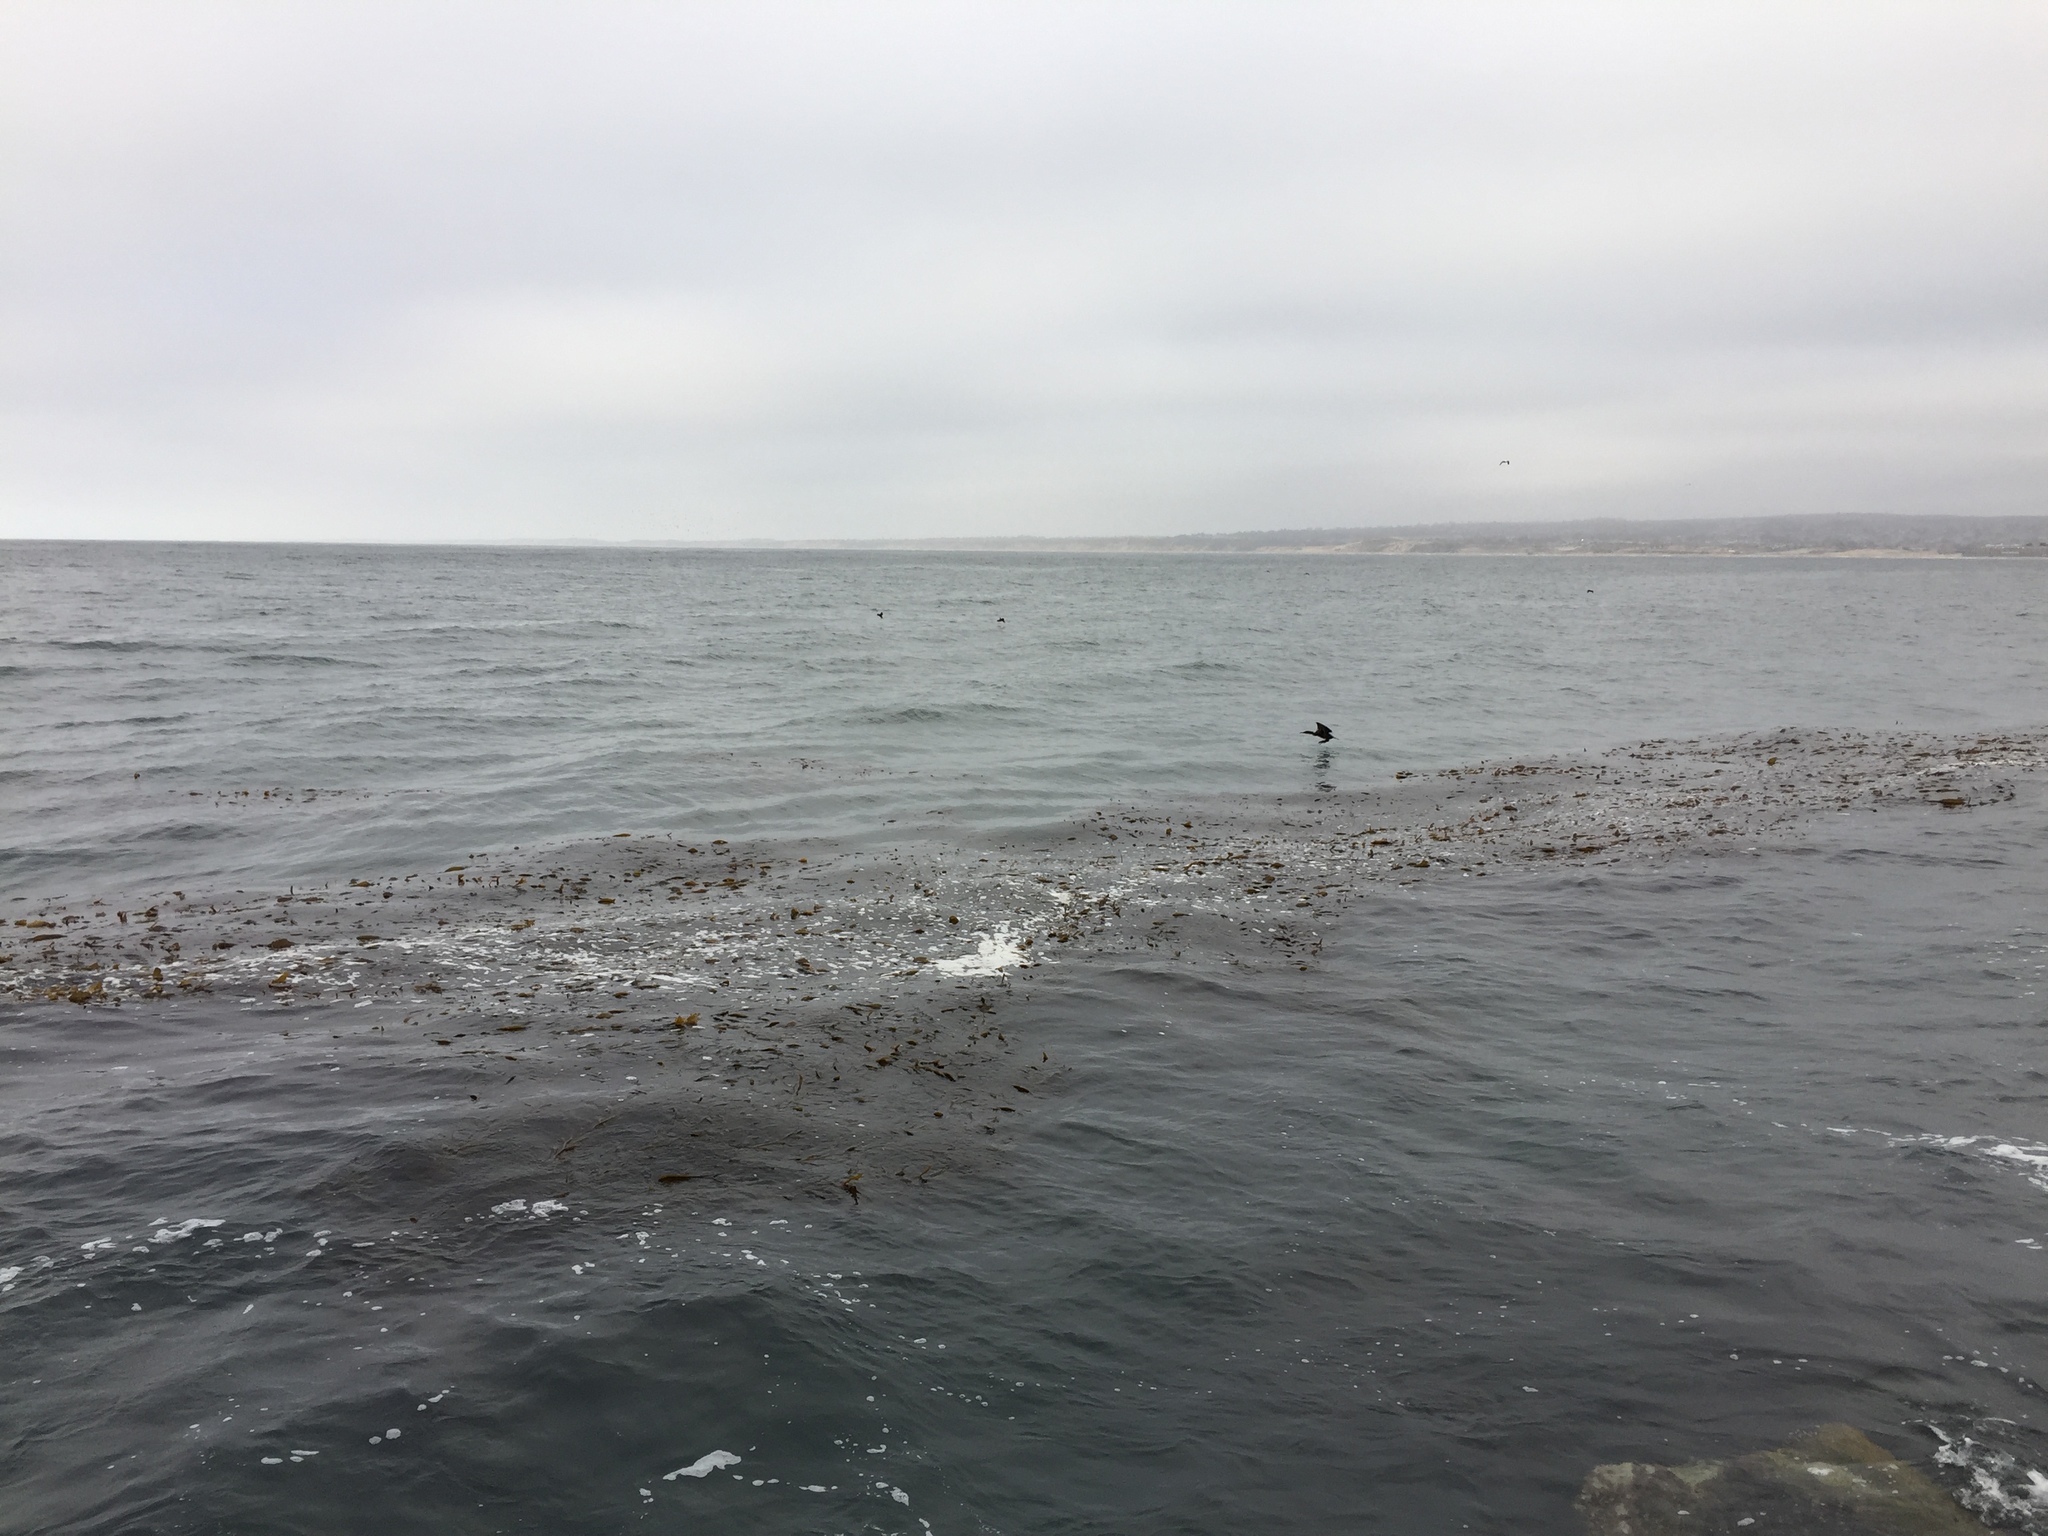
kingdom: Animalia
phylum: Chordata
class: Aves
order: Suliformes
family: Phalacrocoracidae
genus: Urile
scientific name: Urile penicillatus
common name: Brandt's cormorant
